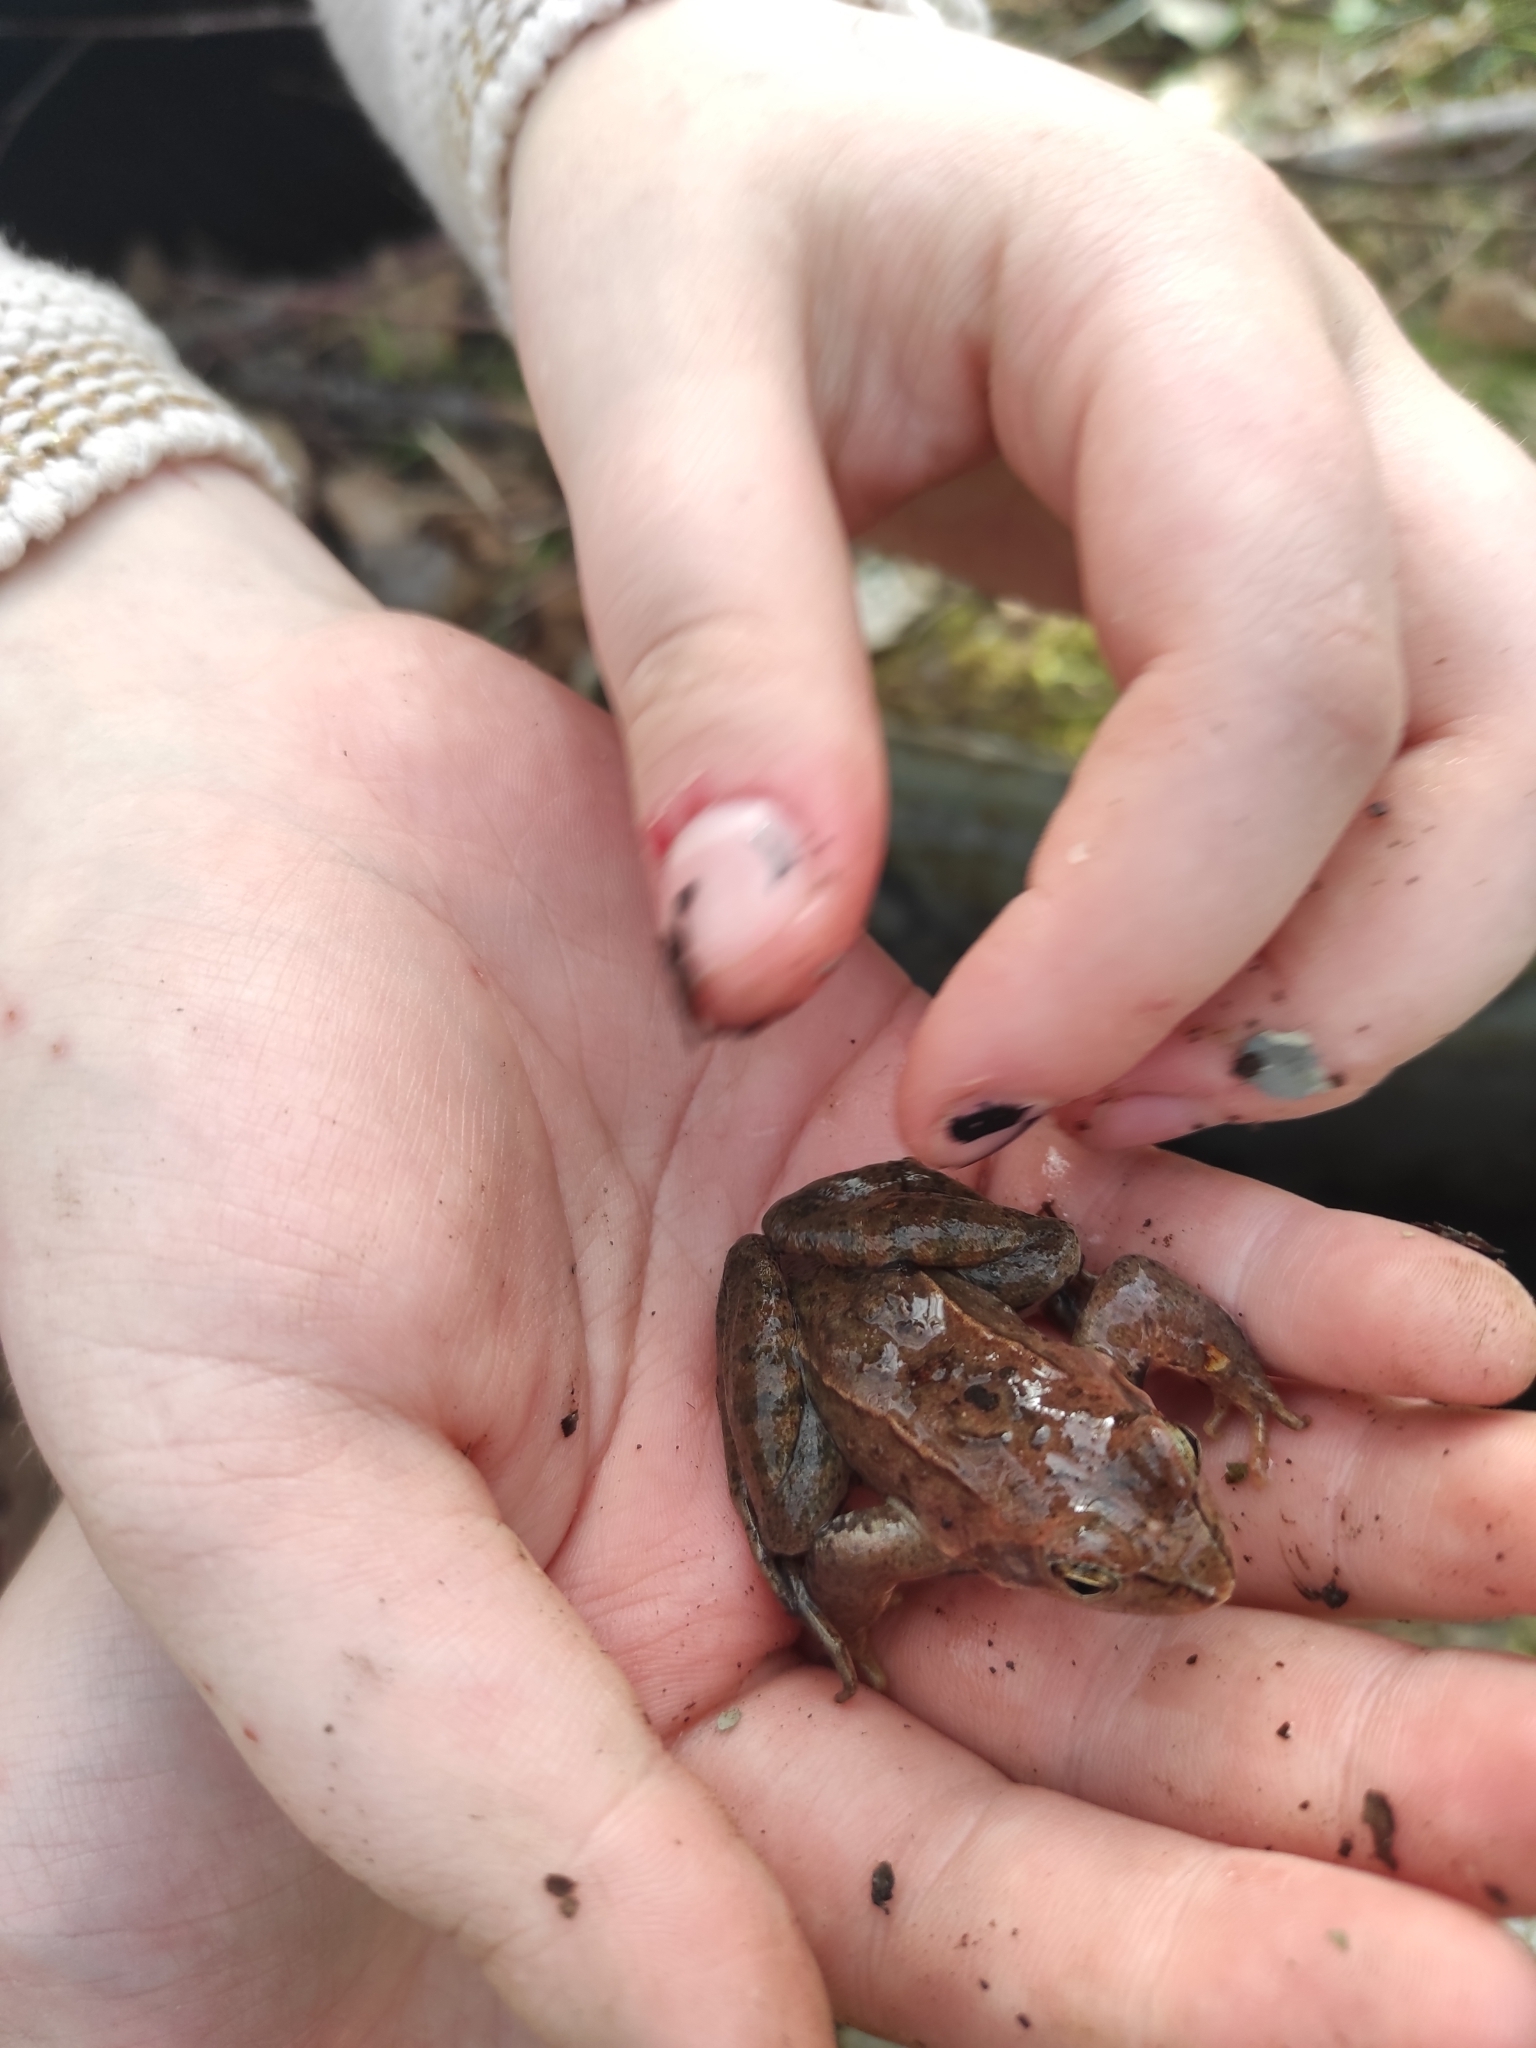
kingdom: Animalia
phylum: Chordata
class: Amphibia
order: Anura
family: Ranidae
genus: Rana
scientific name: Rana arvalis
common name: Moor frog
